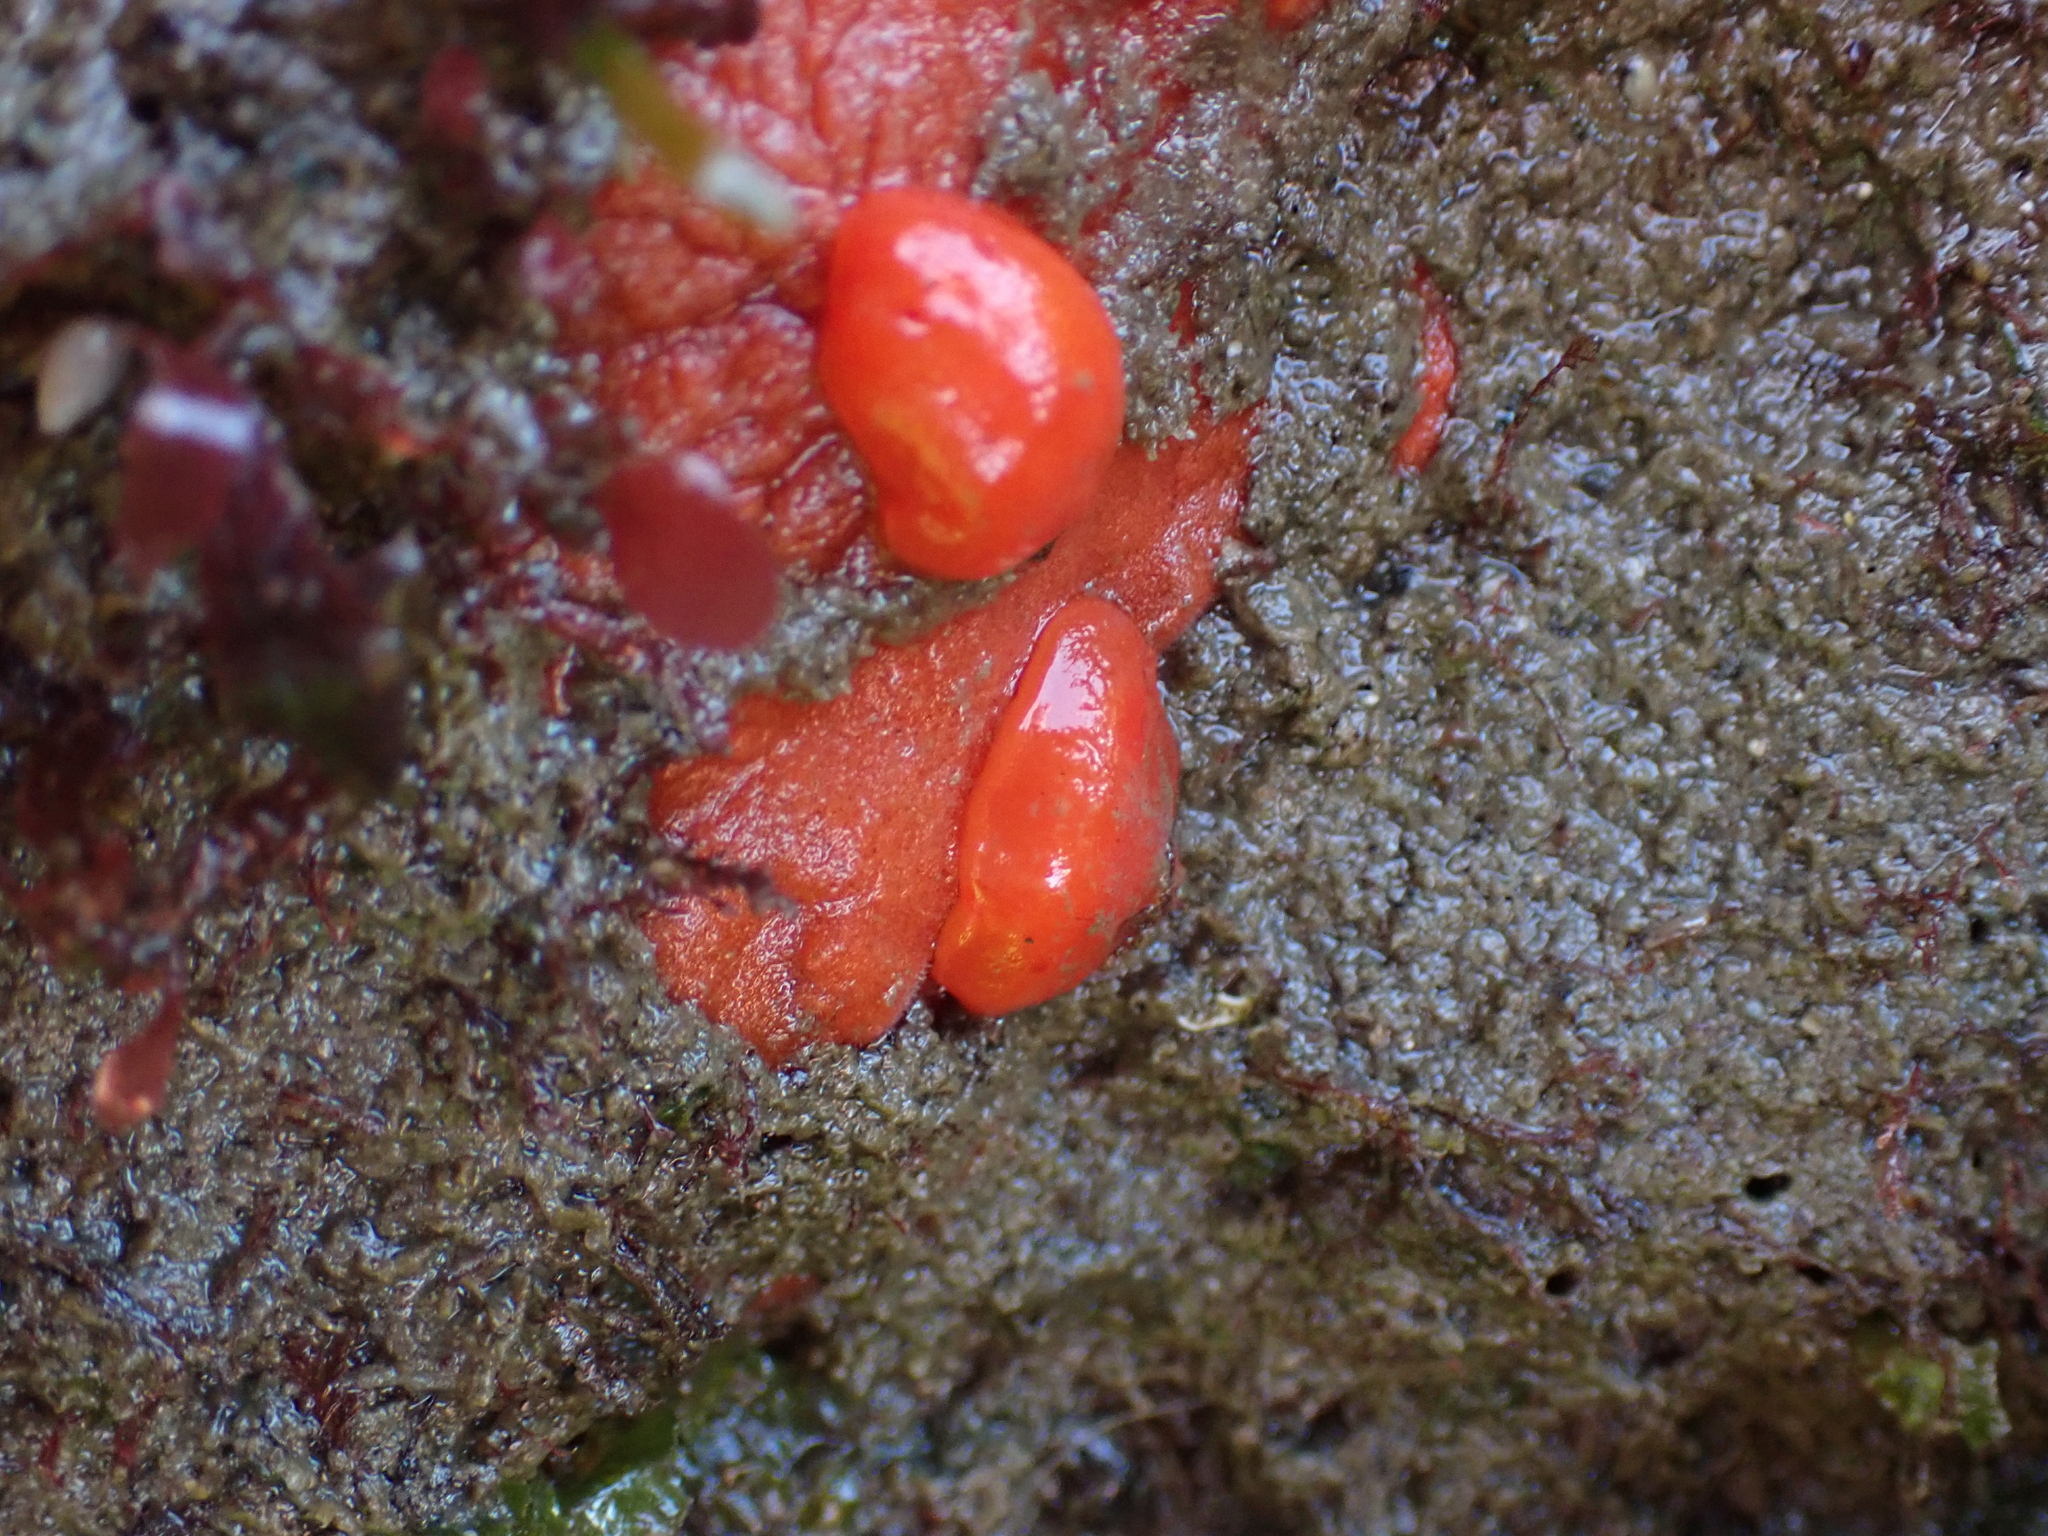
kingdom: Animalia
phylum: Mollusca
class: Gastropoda
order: Nudibranchia
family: Discodorididae
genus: Rostanga
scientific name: Rostanga pulchra
